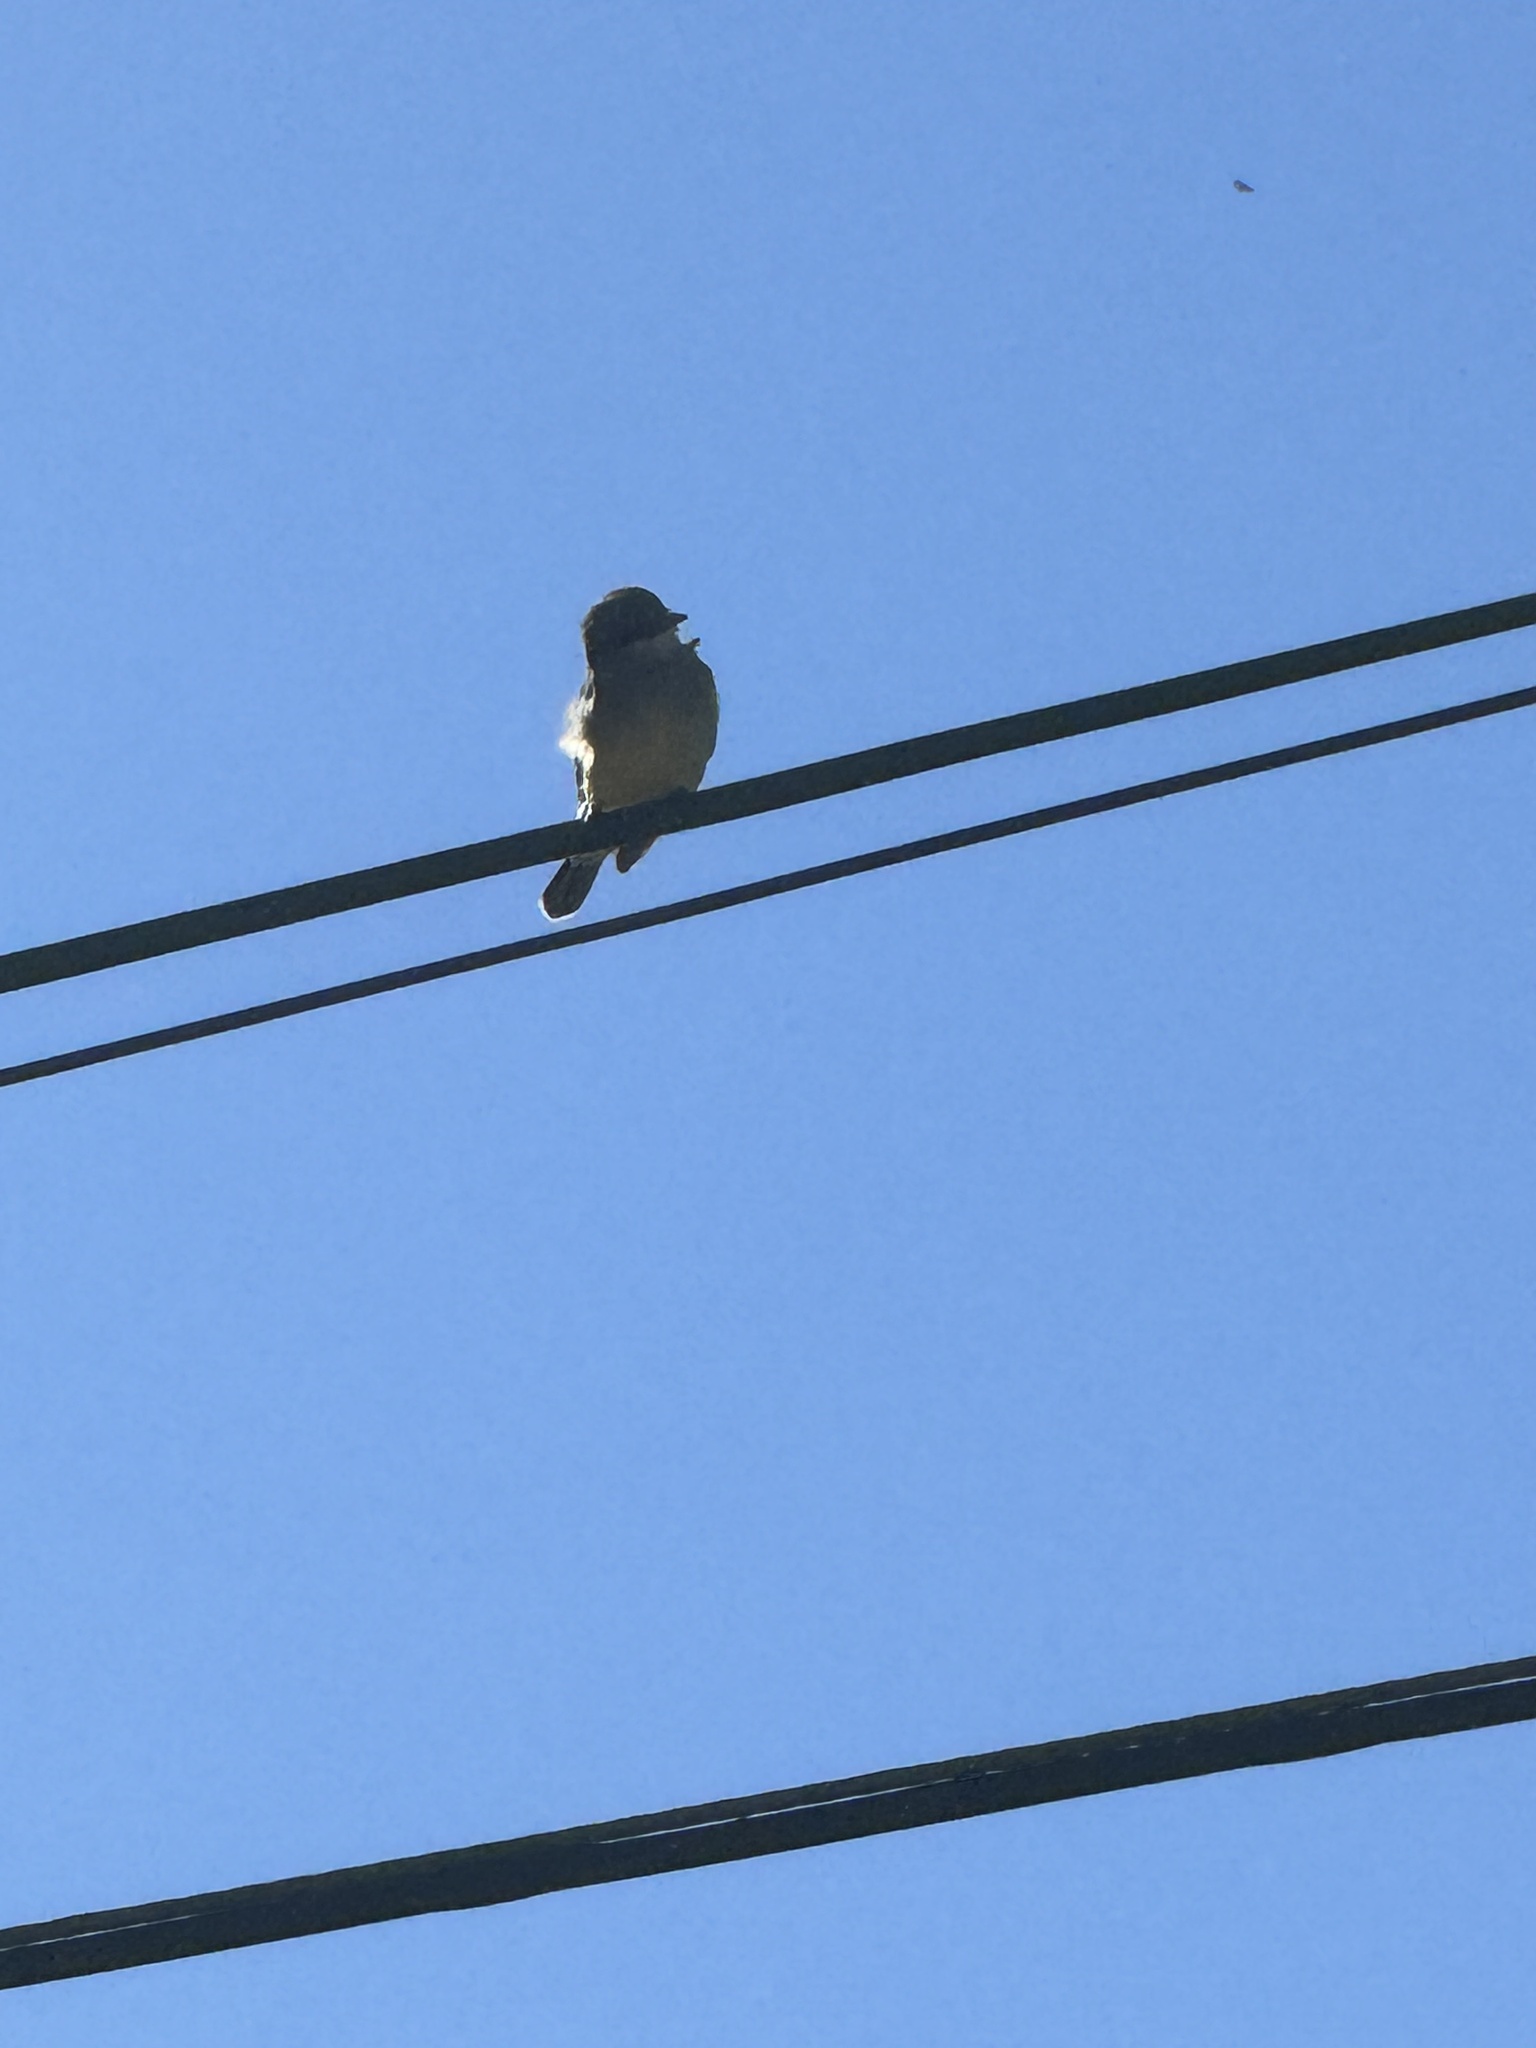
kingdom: Animalia
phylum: Chordata
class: Aves
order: Passeriformes
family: Tyrannidae
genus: Tyrannus
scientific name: Tyrannus vociferans
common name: Cassin's kingbird
